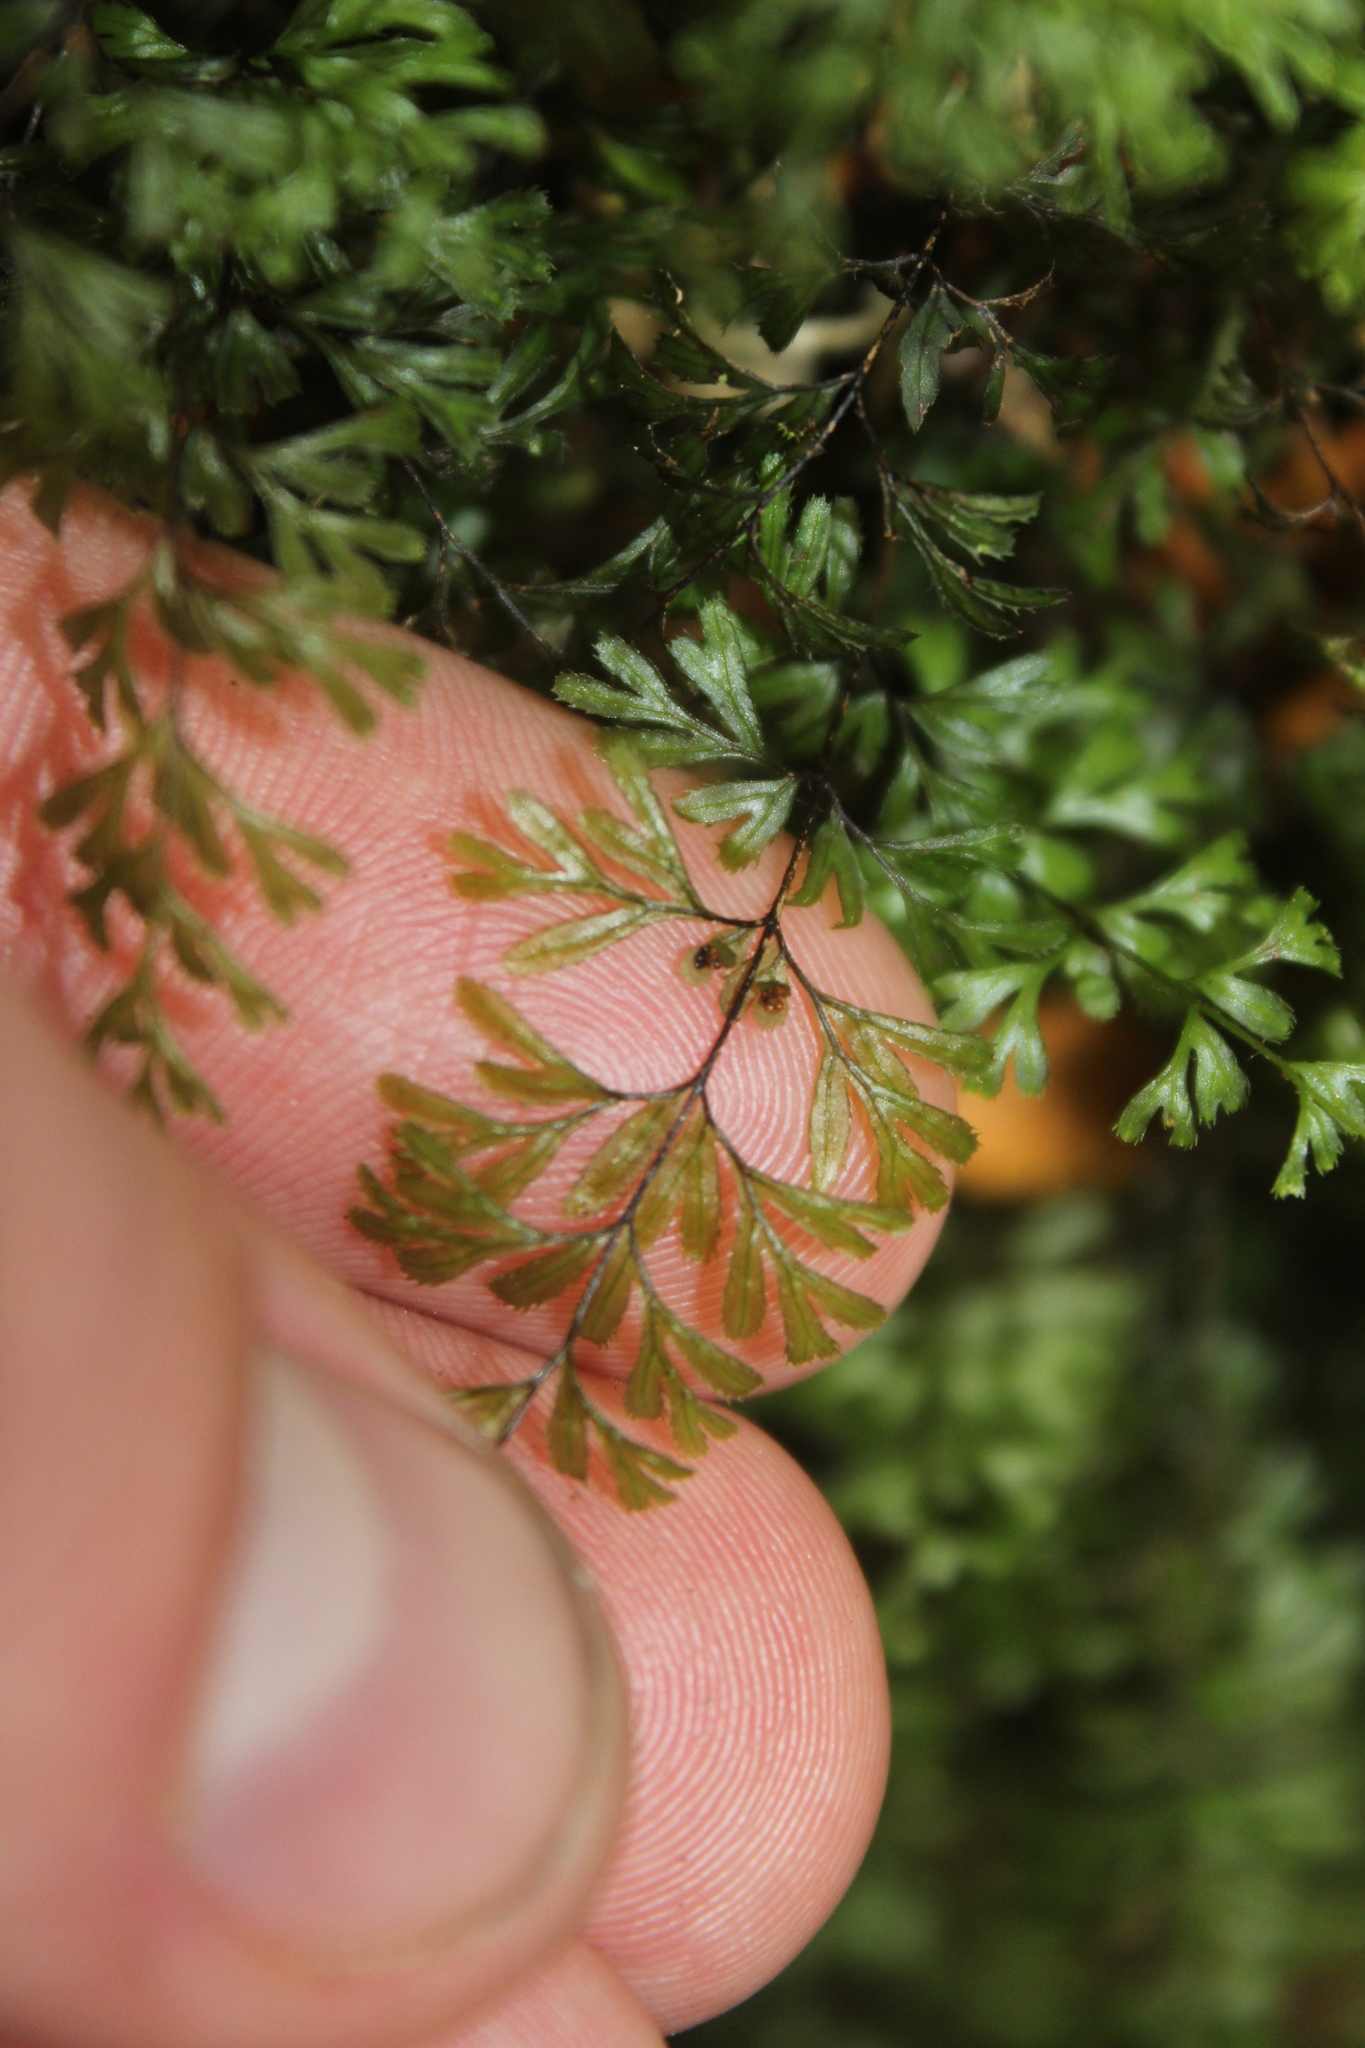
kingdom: Plantae
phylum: Tracheophyta
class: Polypodiopsida
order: Hymenophyllales
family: Hymenophyllaceae
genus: Hymenophyllum
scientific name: Hymenophyllum revolutum
